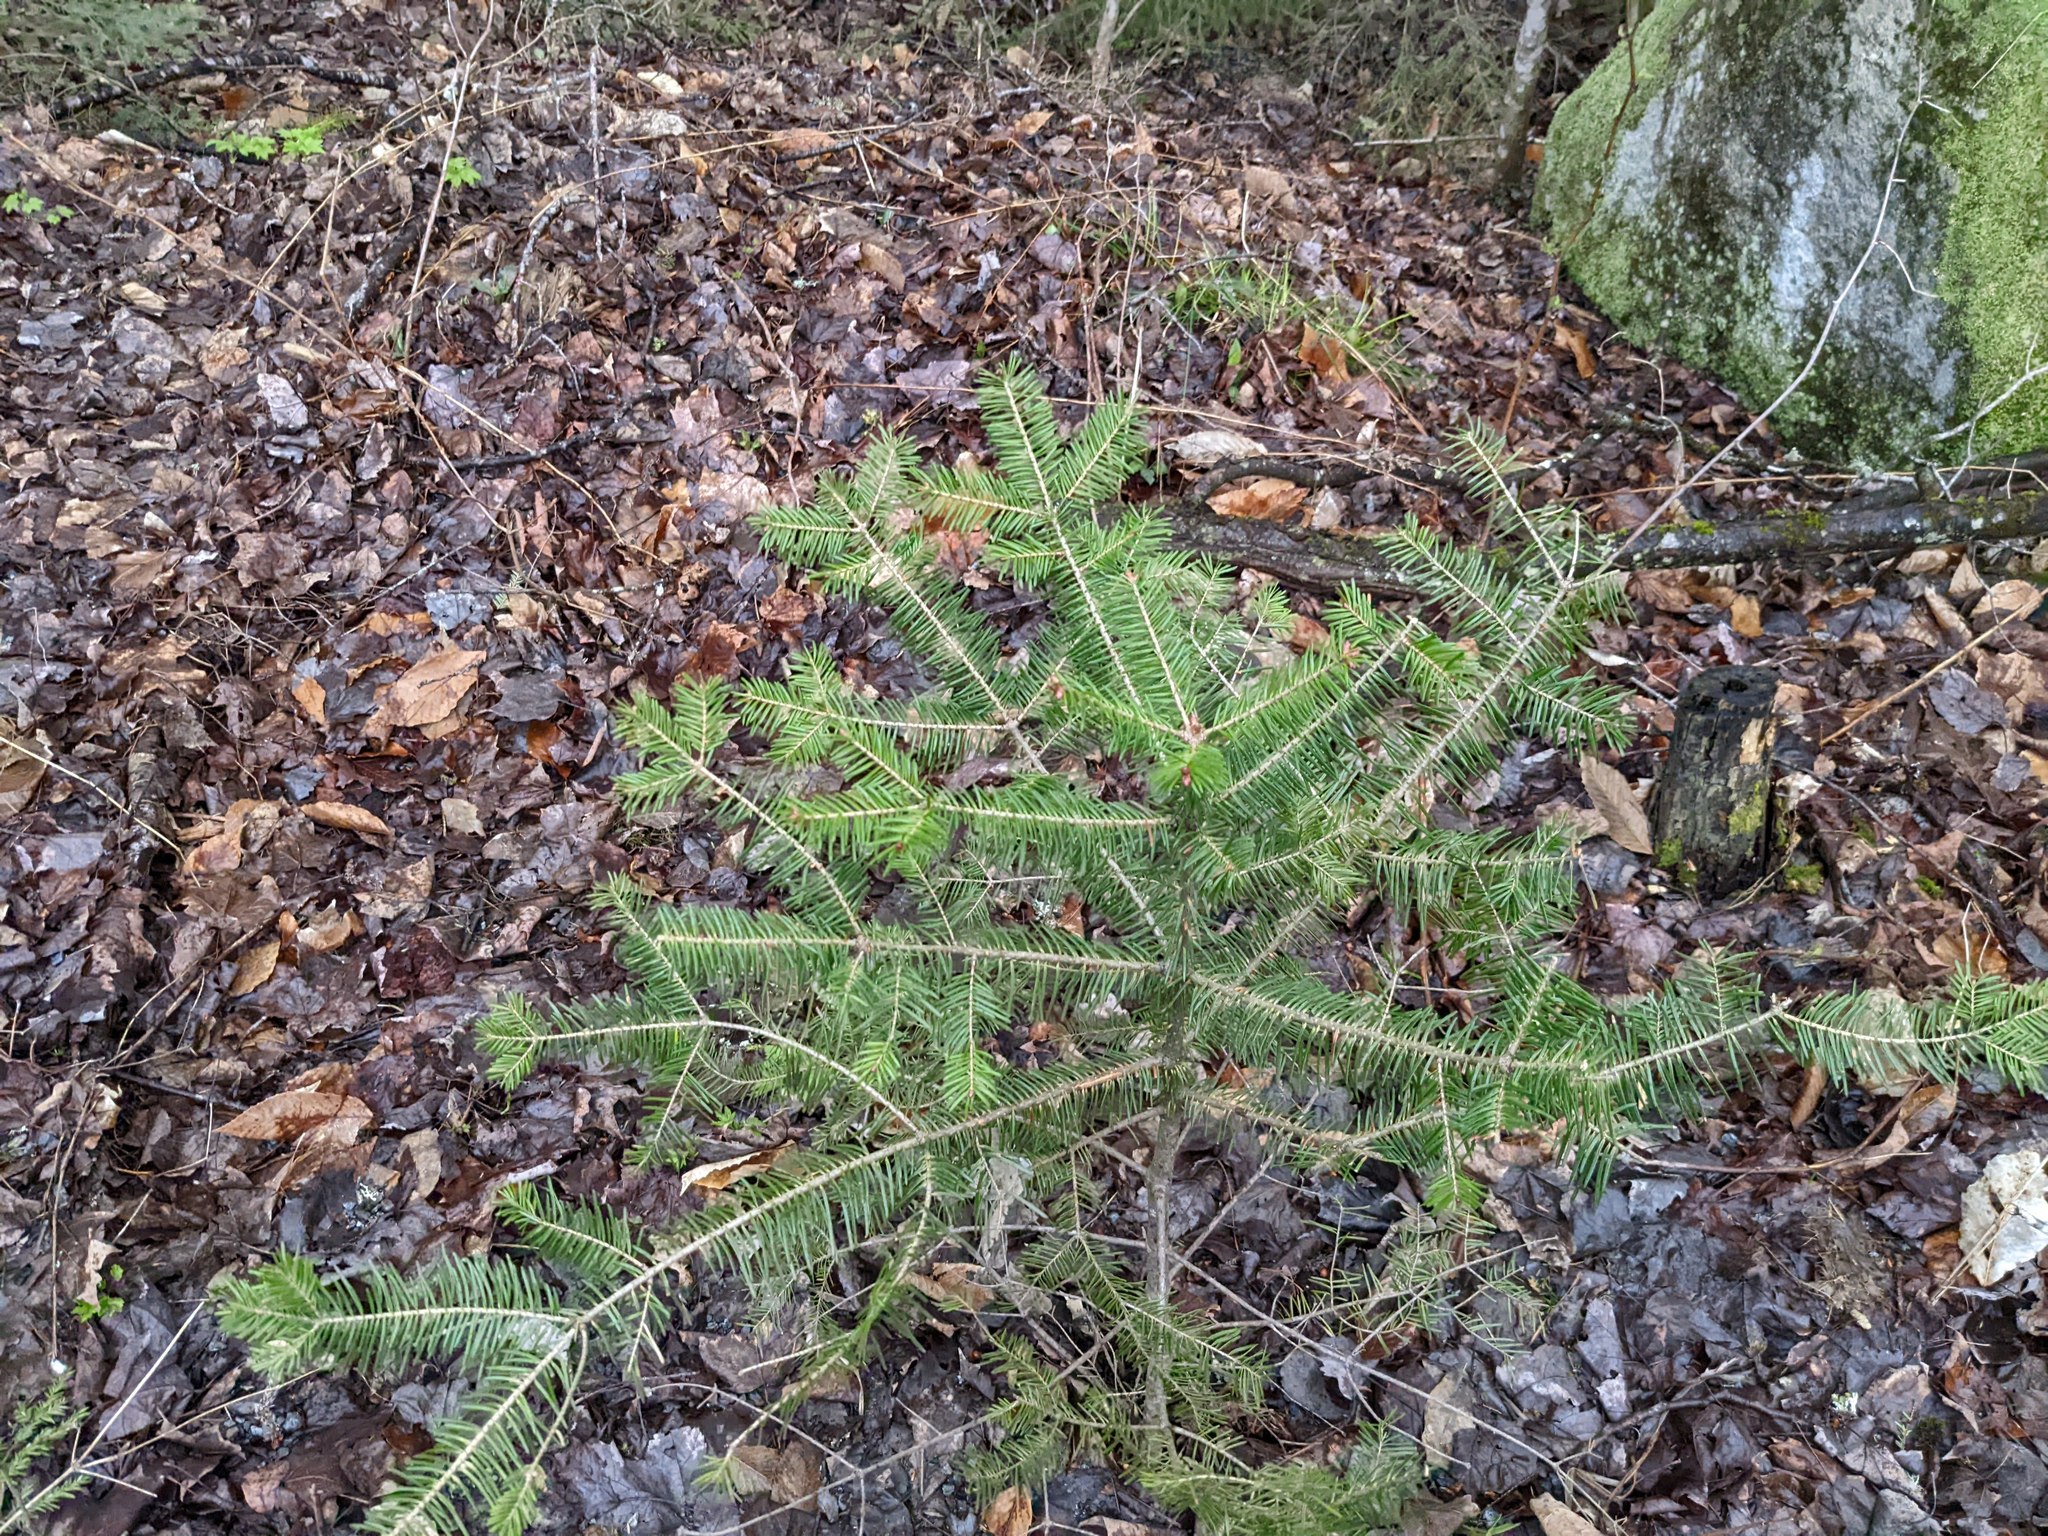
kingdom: Plantae
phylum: Tracheophyta
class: Pinopsida
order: Pinales
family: Pinaceae
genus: Abies
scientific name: Abies balsamea
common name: Balsam fir
